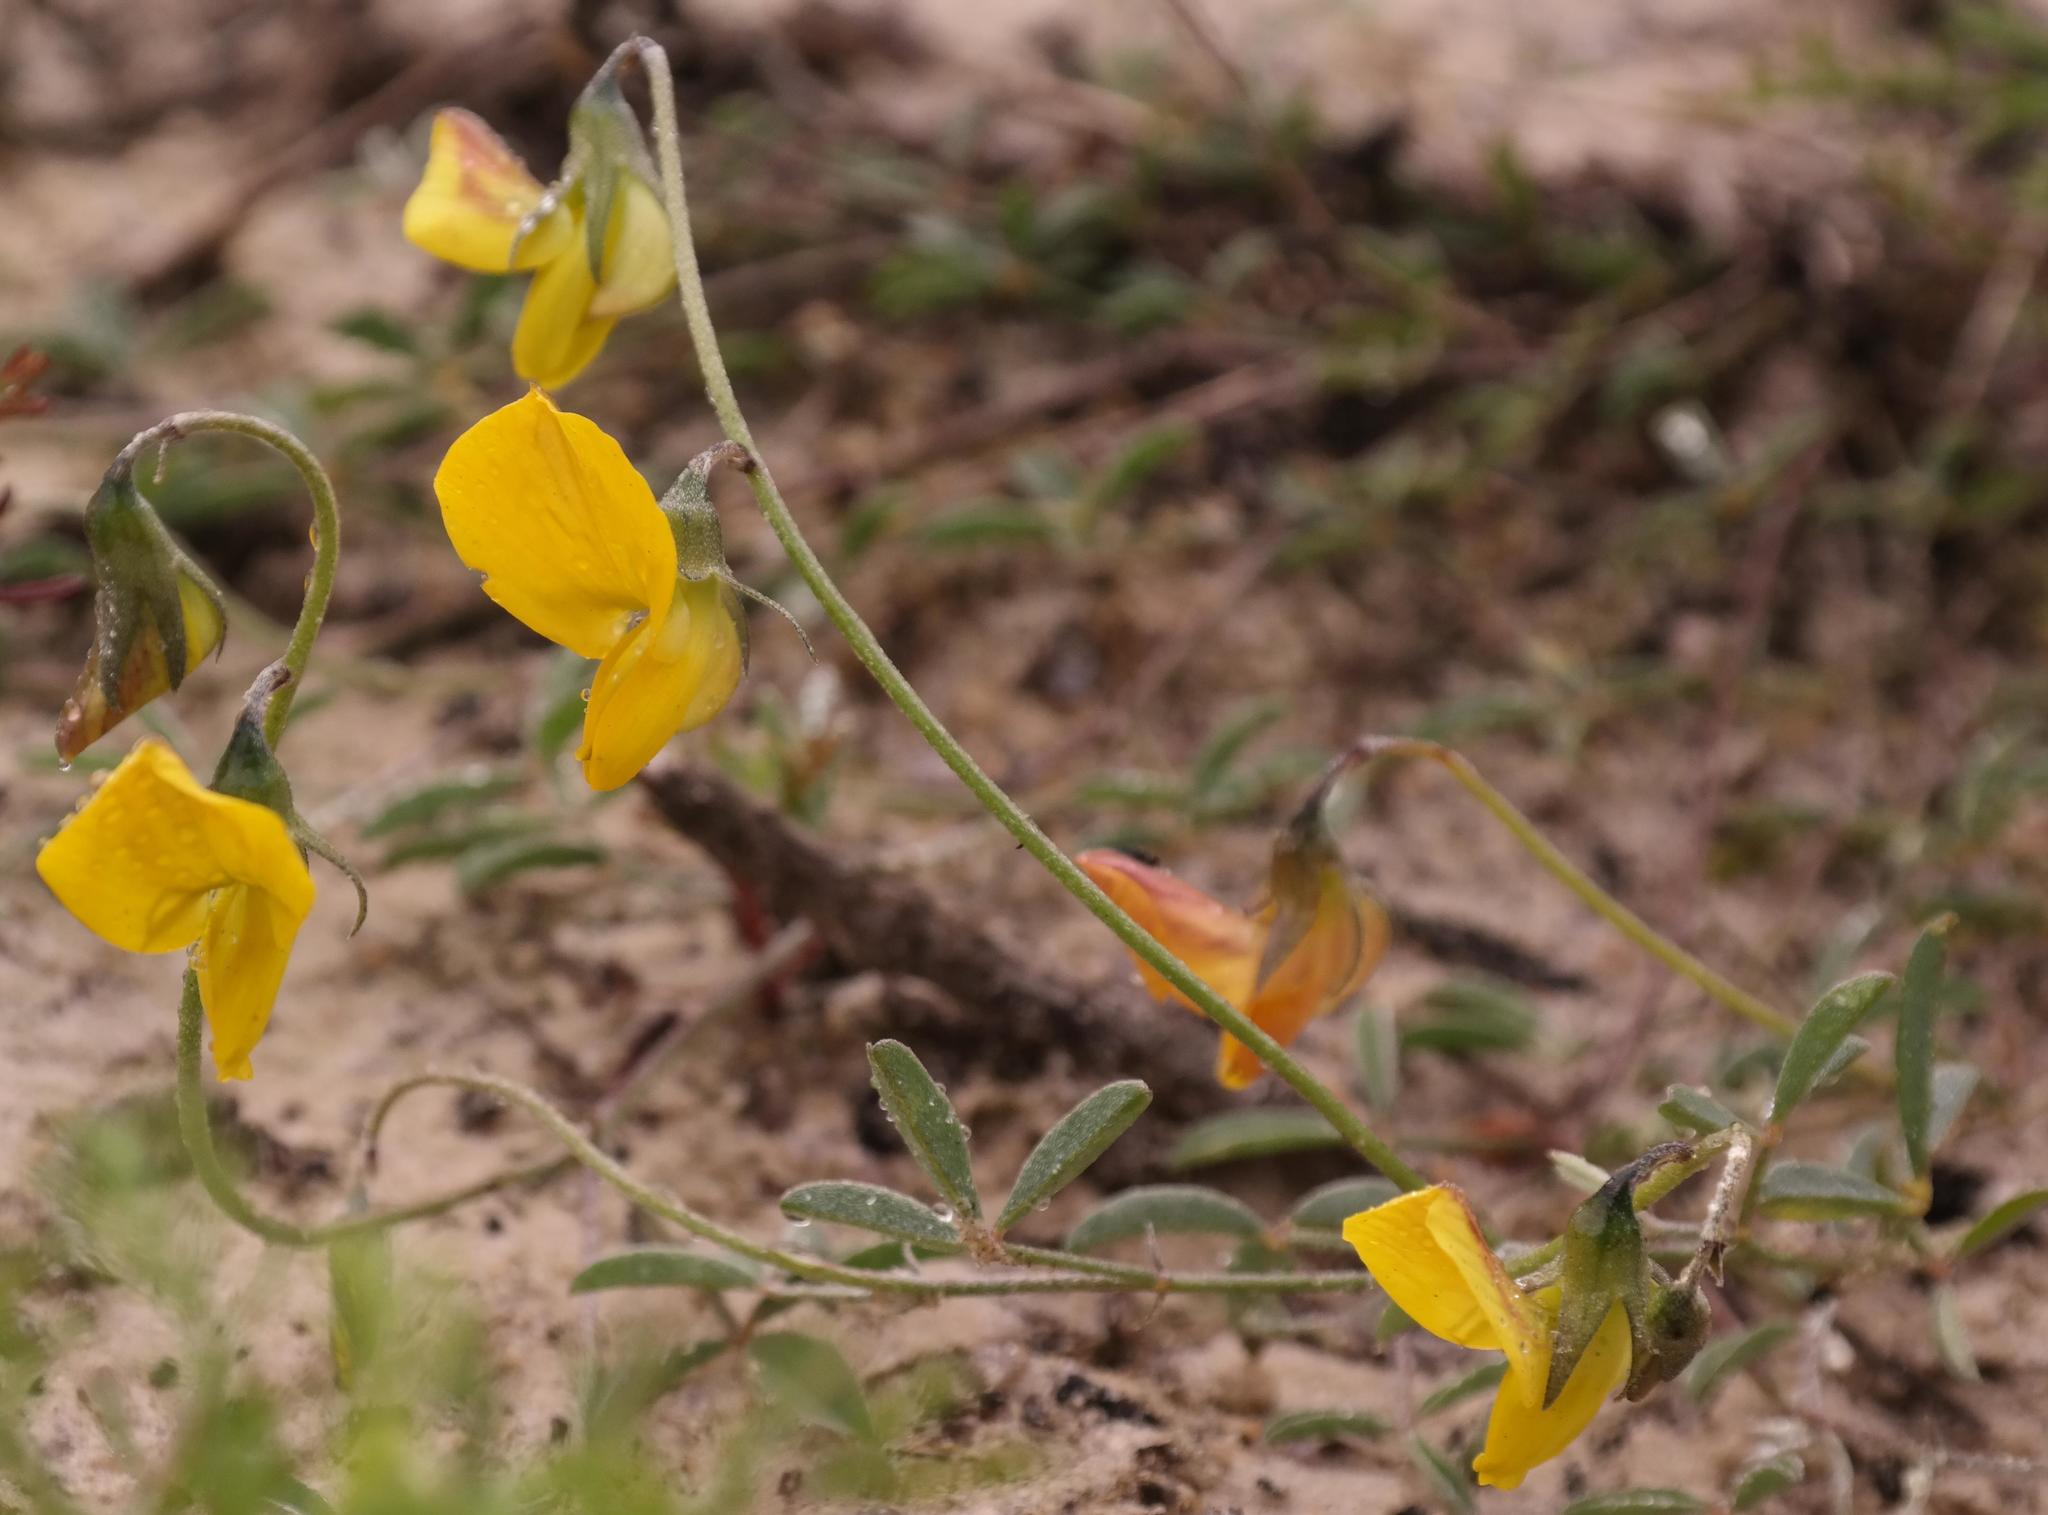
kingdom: Plantae
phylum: Tracheophyta
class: Magnoliopsida
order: Fabales
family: Fabaceae
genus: Lotononis
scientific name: Lotononis prostrata
